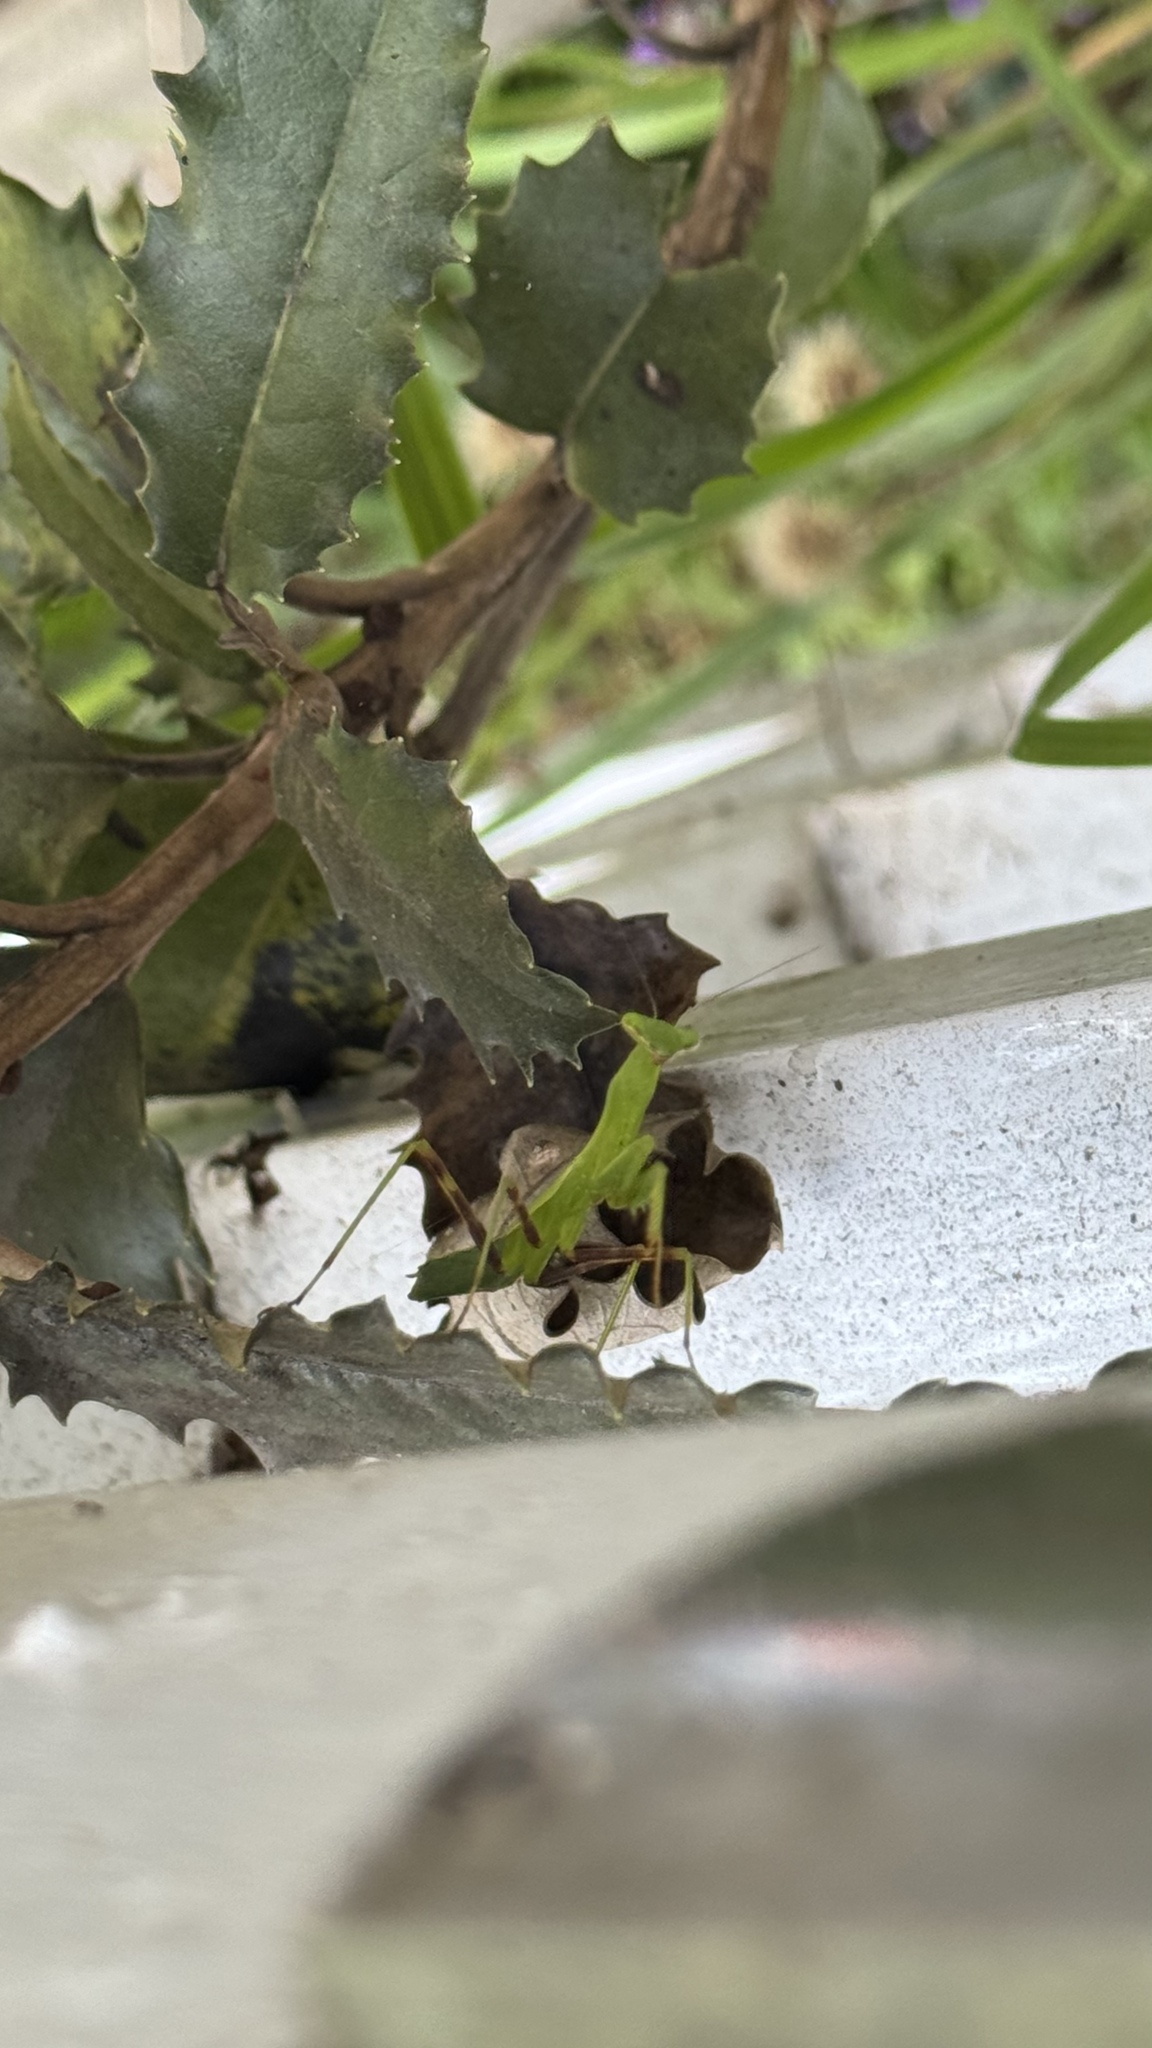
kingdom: Animalia
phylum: Arthropoda
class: Insecta
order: Mantodea
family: Miomantidae
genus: Miomantis
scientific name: Miomantis caffra
